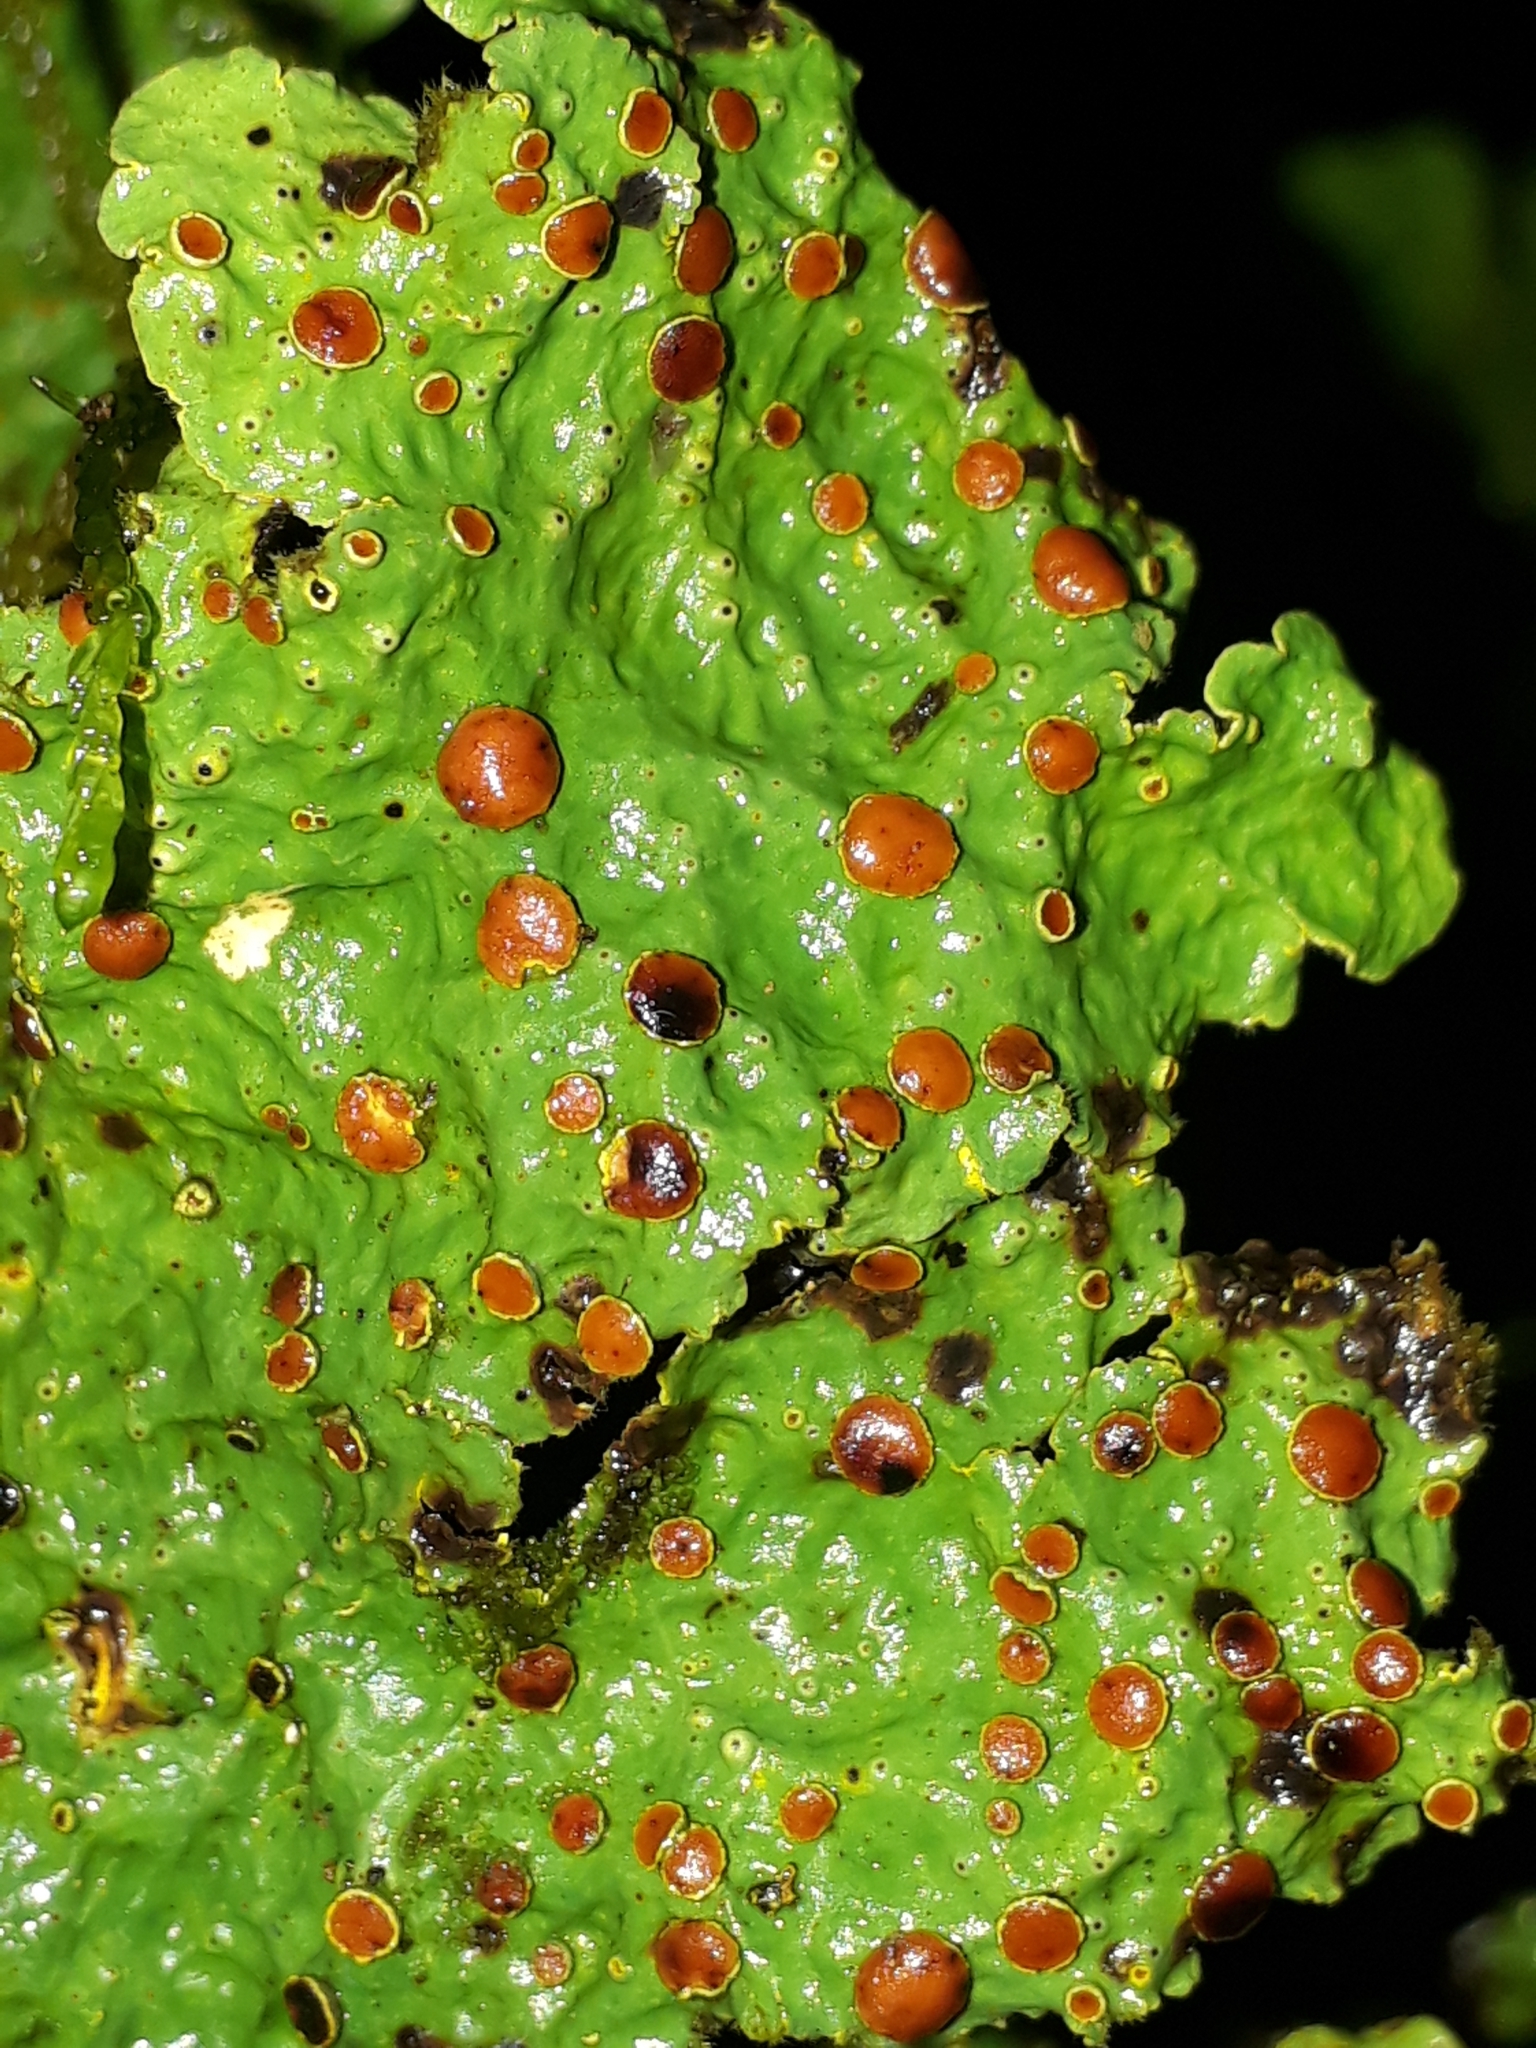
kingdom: Fungi
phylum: Ascomycota
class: Lecanoromycetes
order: Peltigerales
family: Lobariaceae
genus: Yarrumia
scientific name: Yarrumia coronata
